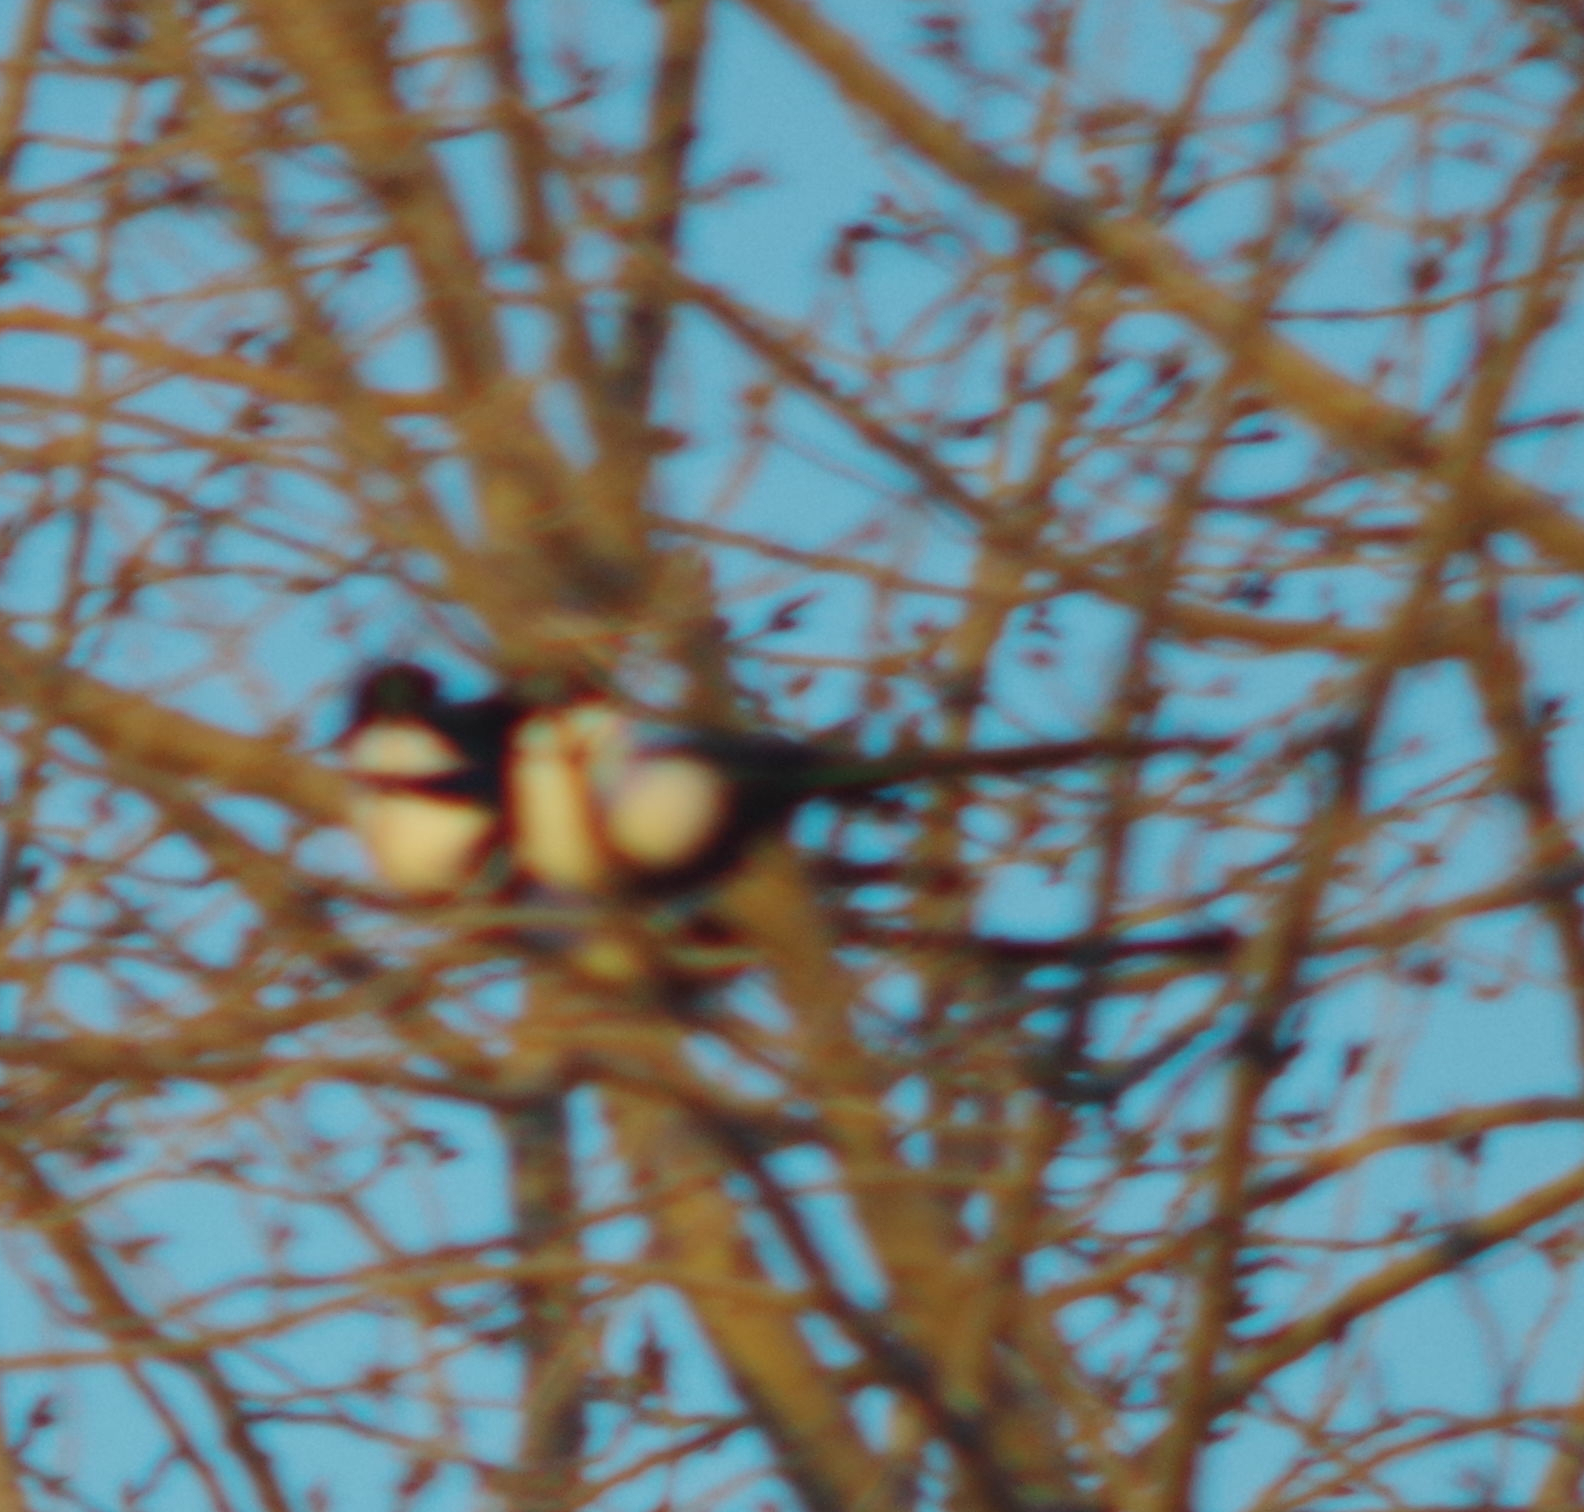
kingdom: Animalia
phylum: Chordata
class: Aves
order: Passeriformes
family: Corvidae
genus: Pica
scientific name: Pica hudsonia
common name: Black-billed magpie
